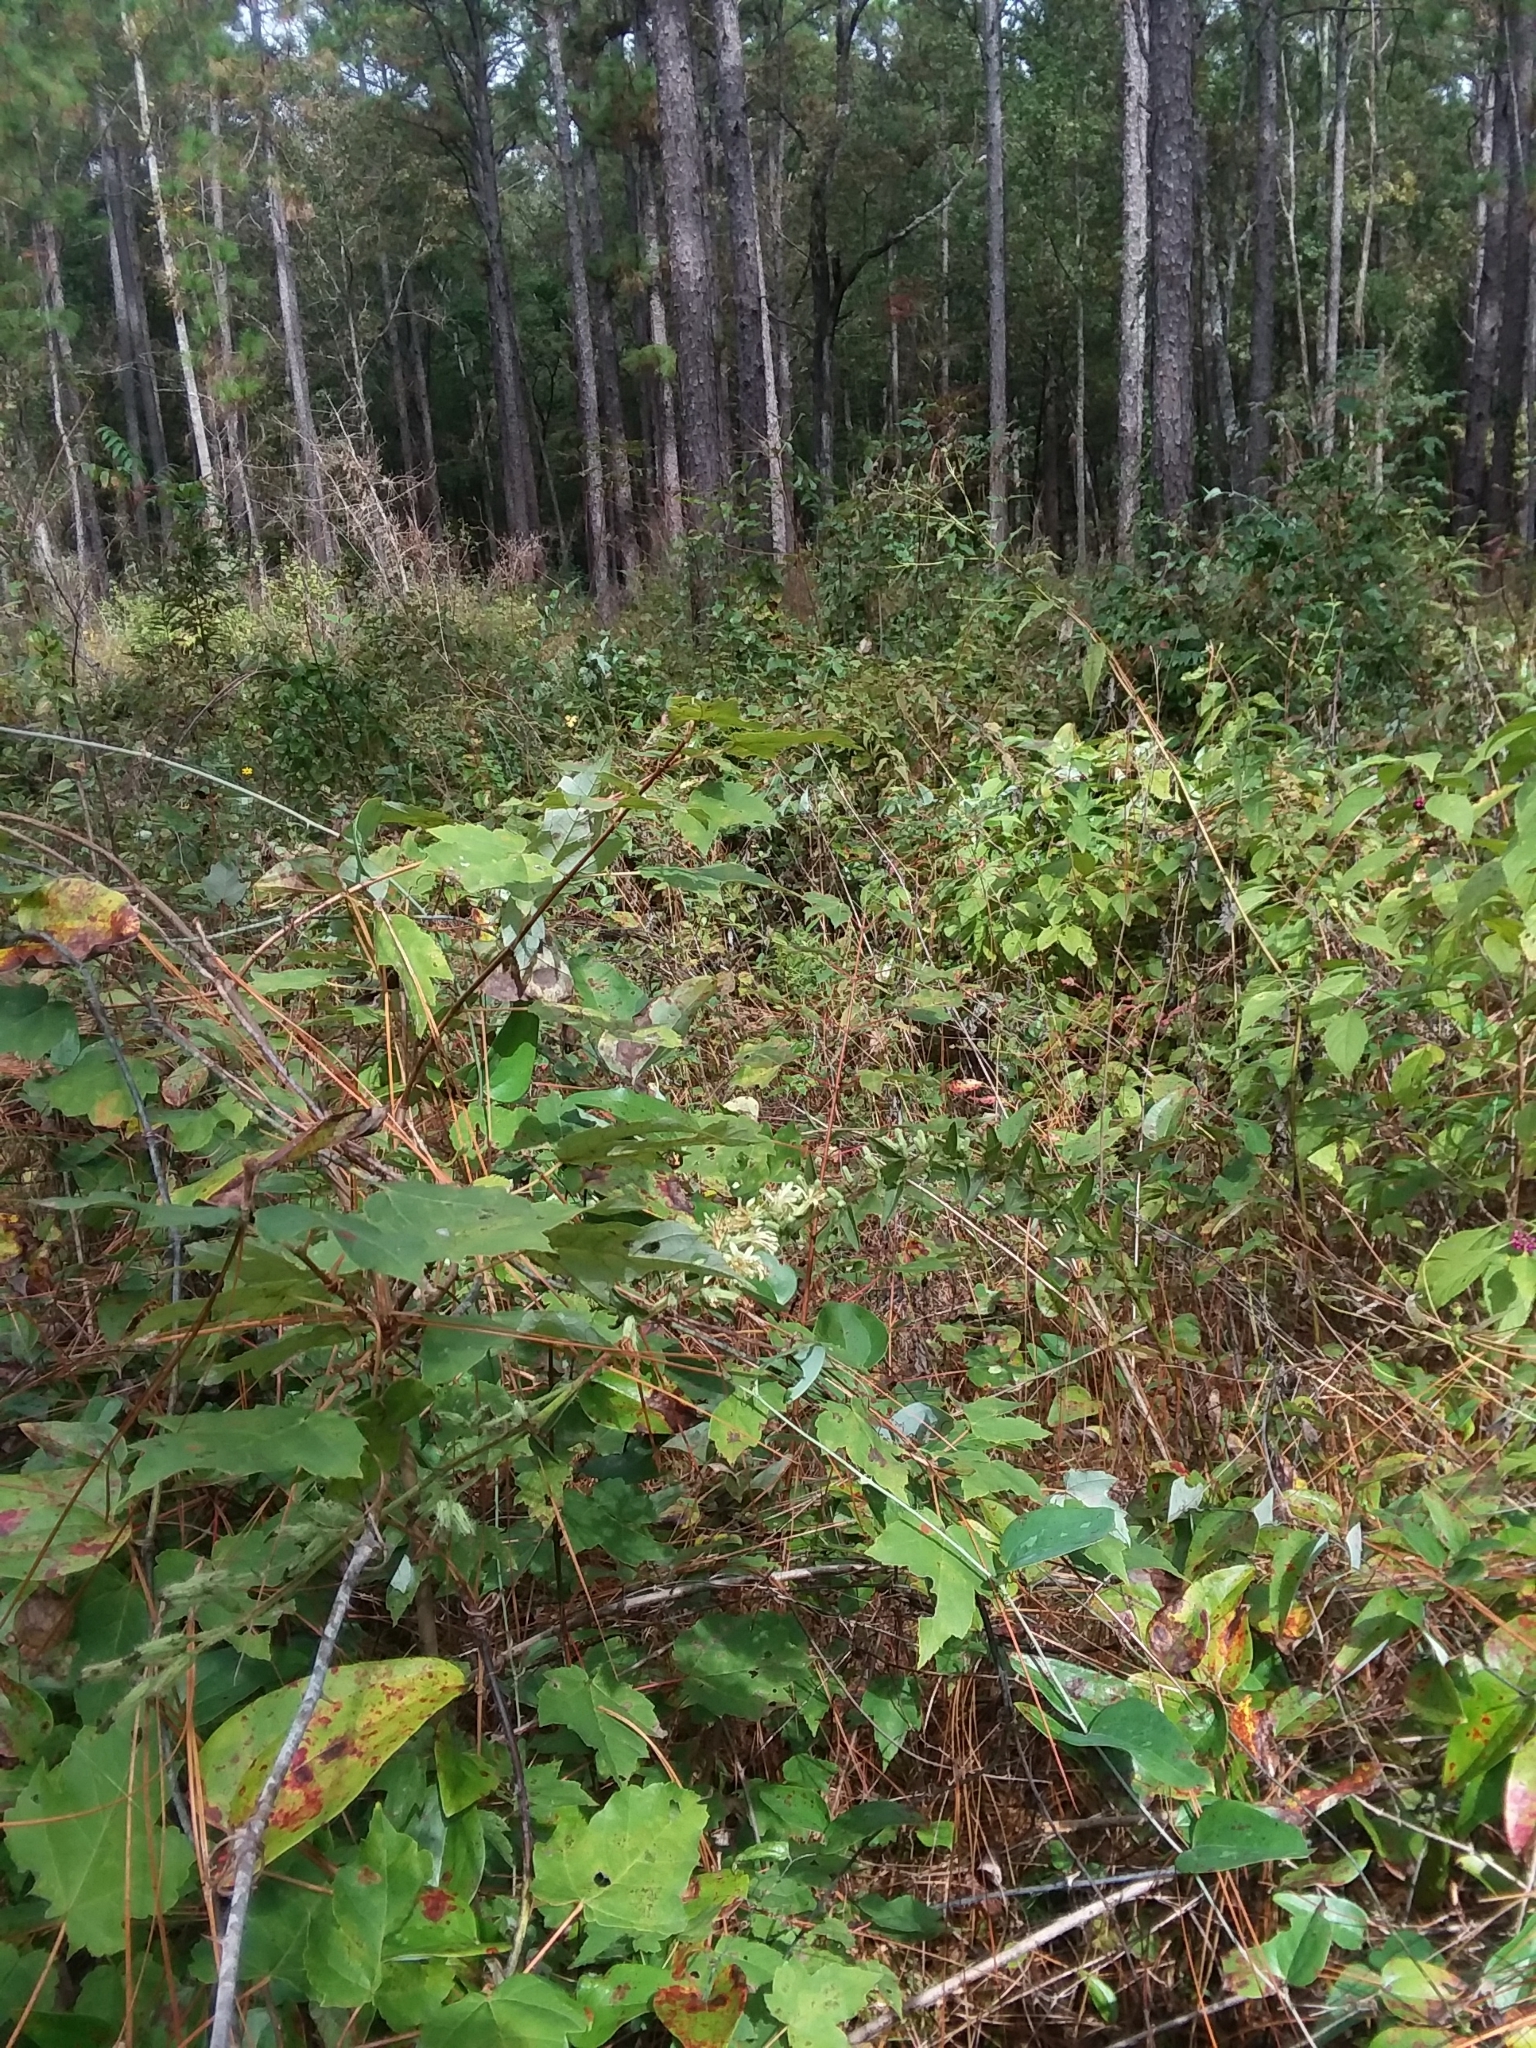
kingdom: Plantae
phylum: Tracheophyta
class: Magnoliopsida
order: Asterales
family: Asteraceae
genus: Nabalus
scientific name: Nabalus asper
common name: Rough rattlesnakeroot
